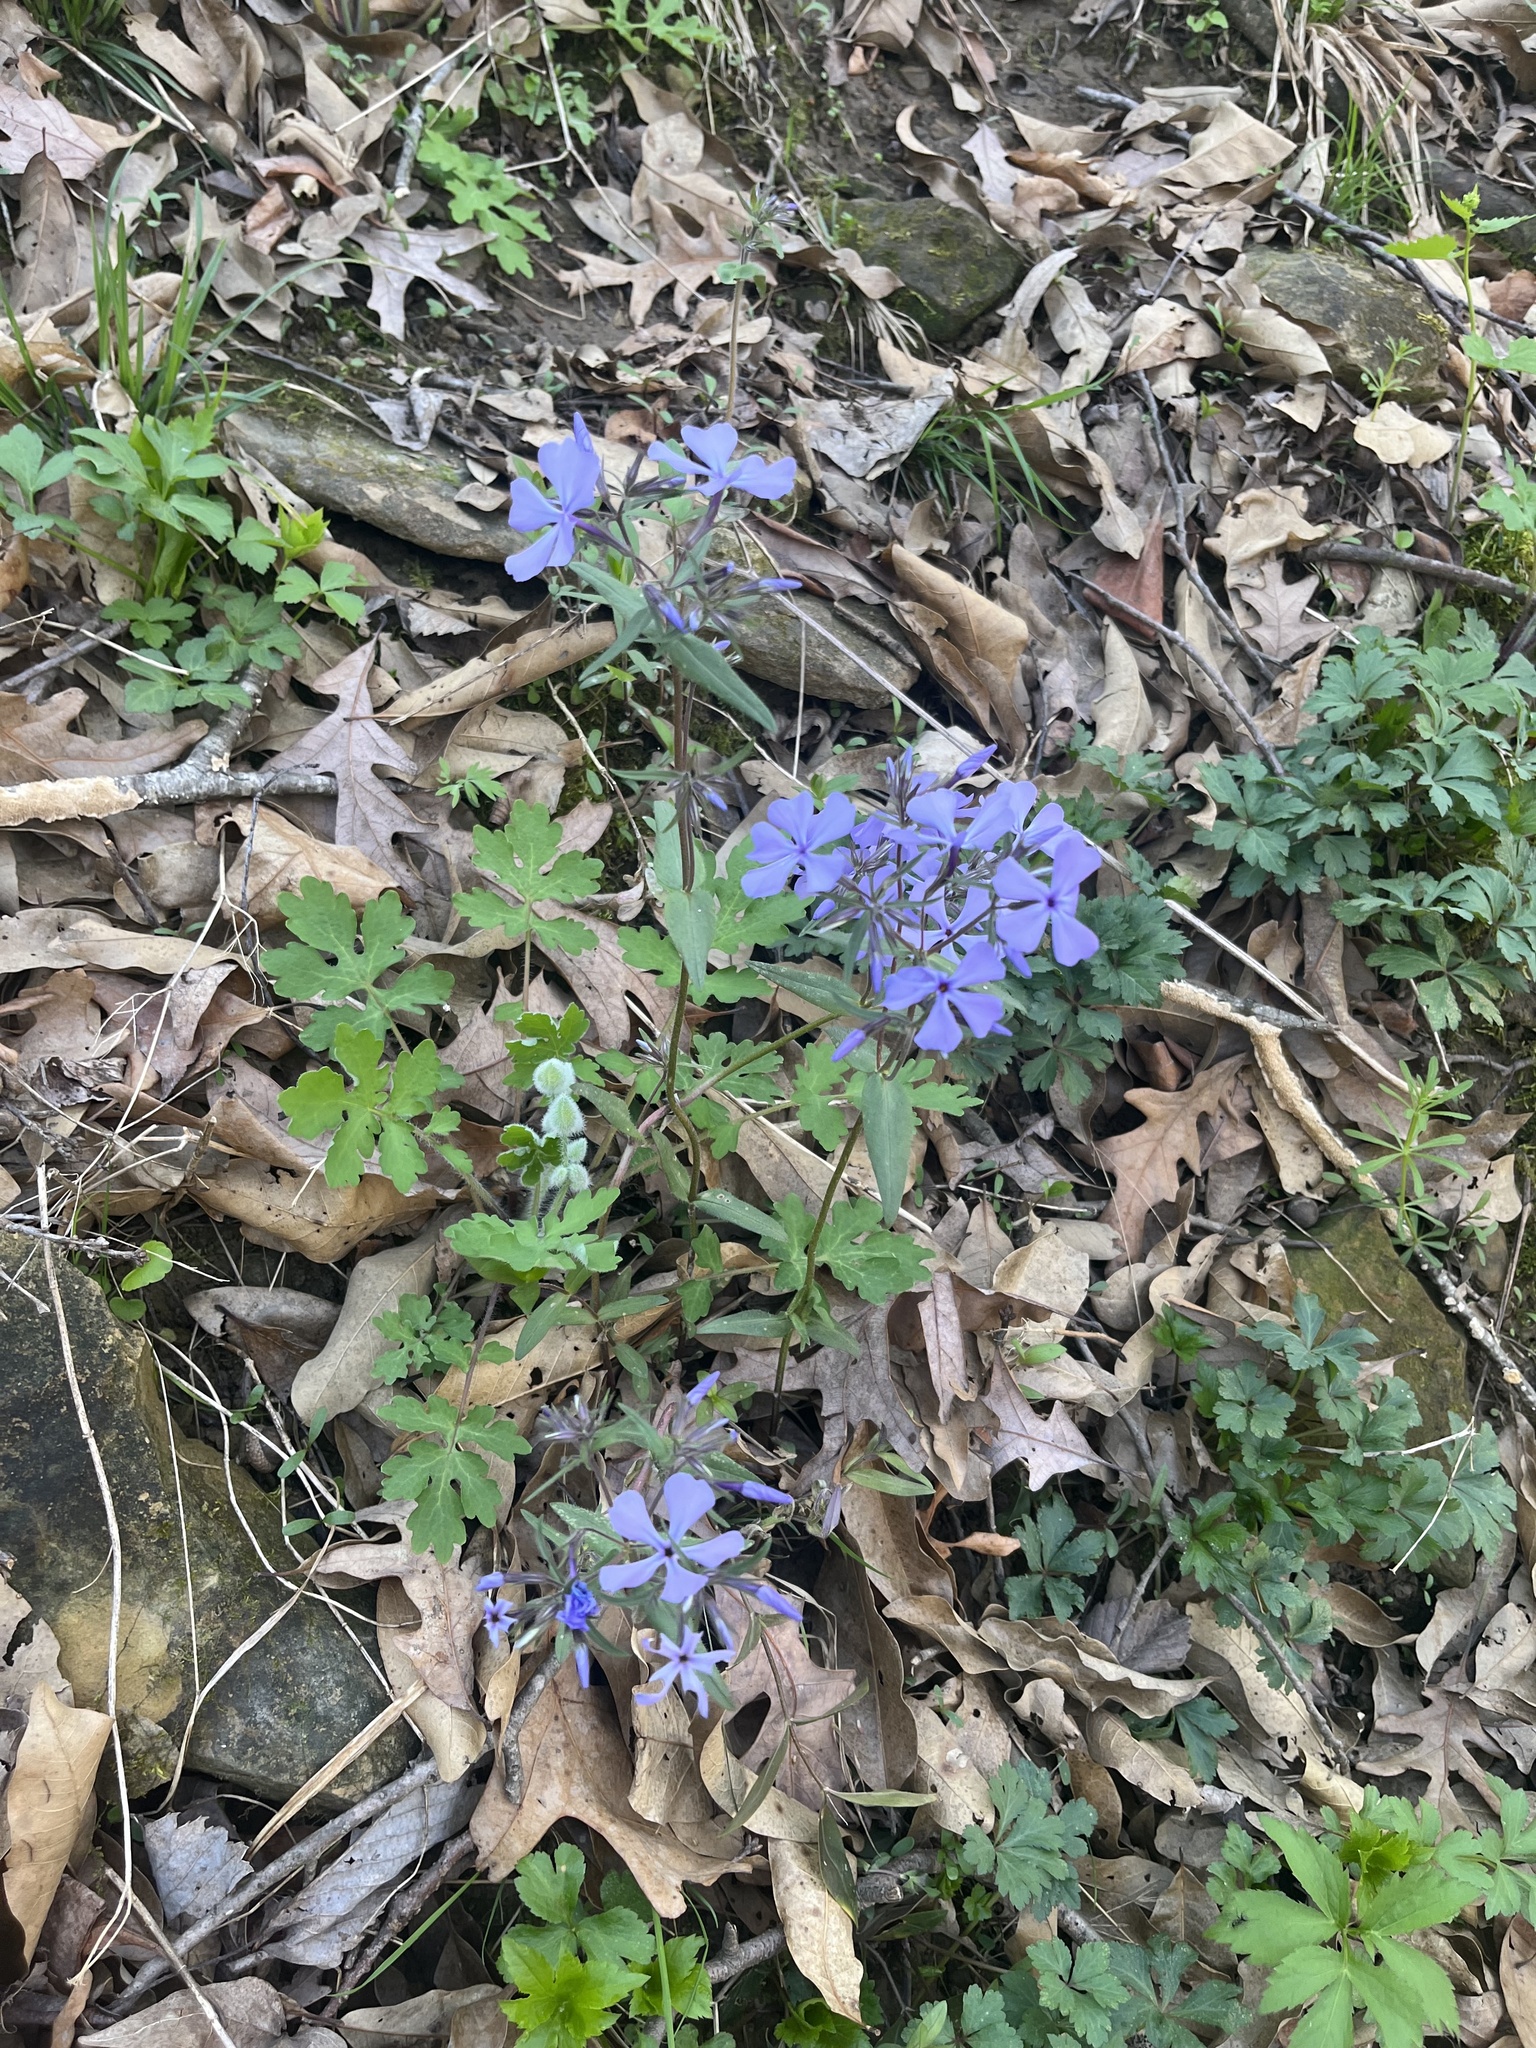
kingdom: Plantae
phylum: Tracheophyta
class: Magnoliopsida
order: Ericales
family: Polemoniaceae
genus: Phlox
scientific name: Phlox divaricata
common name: Blue phlox
